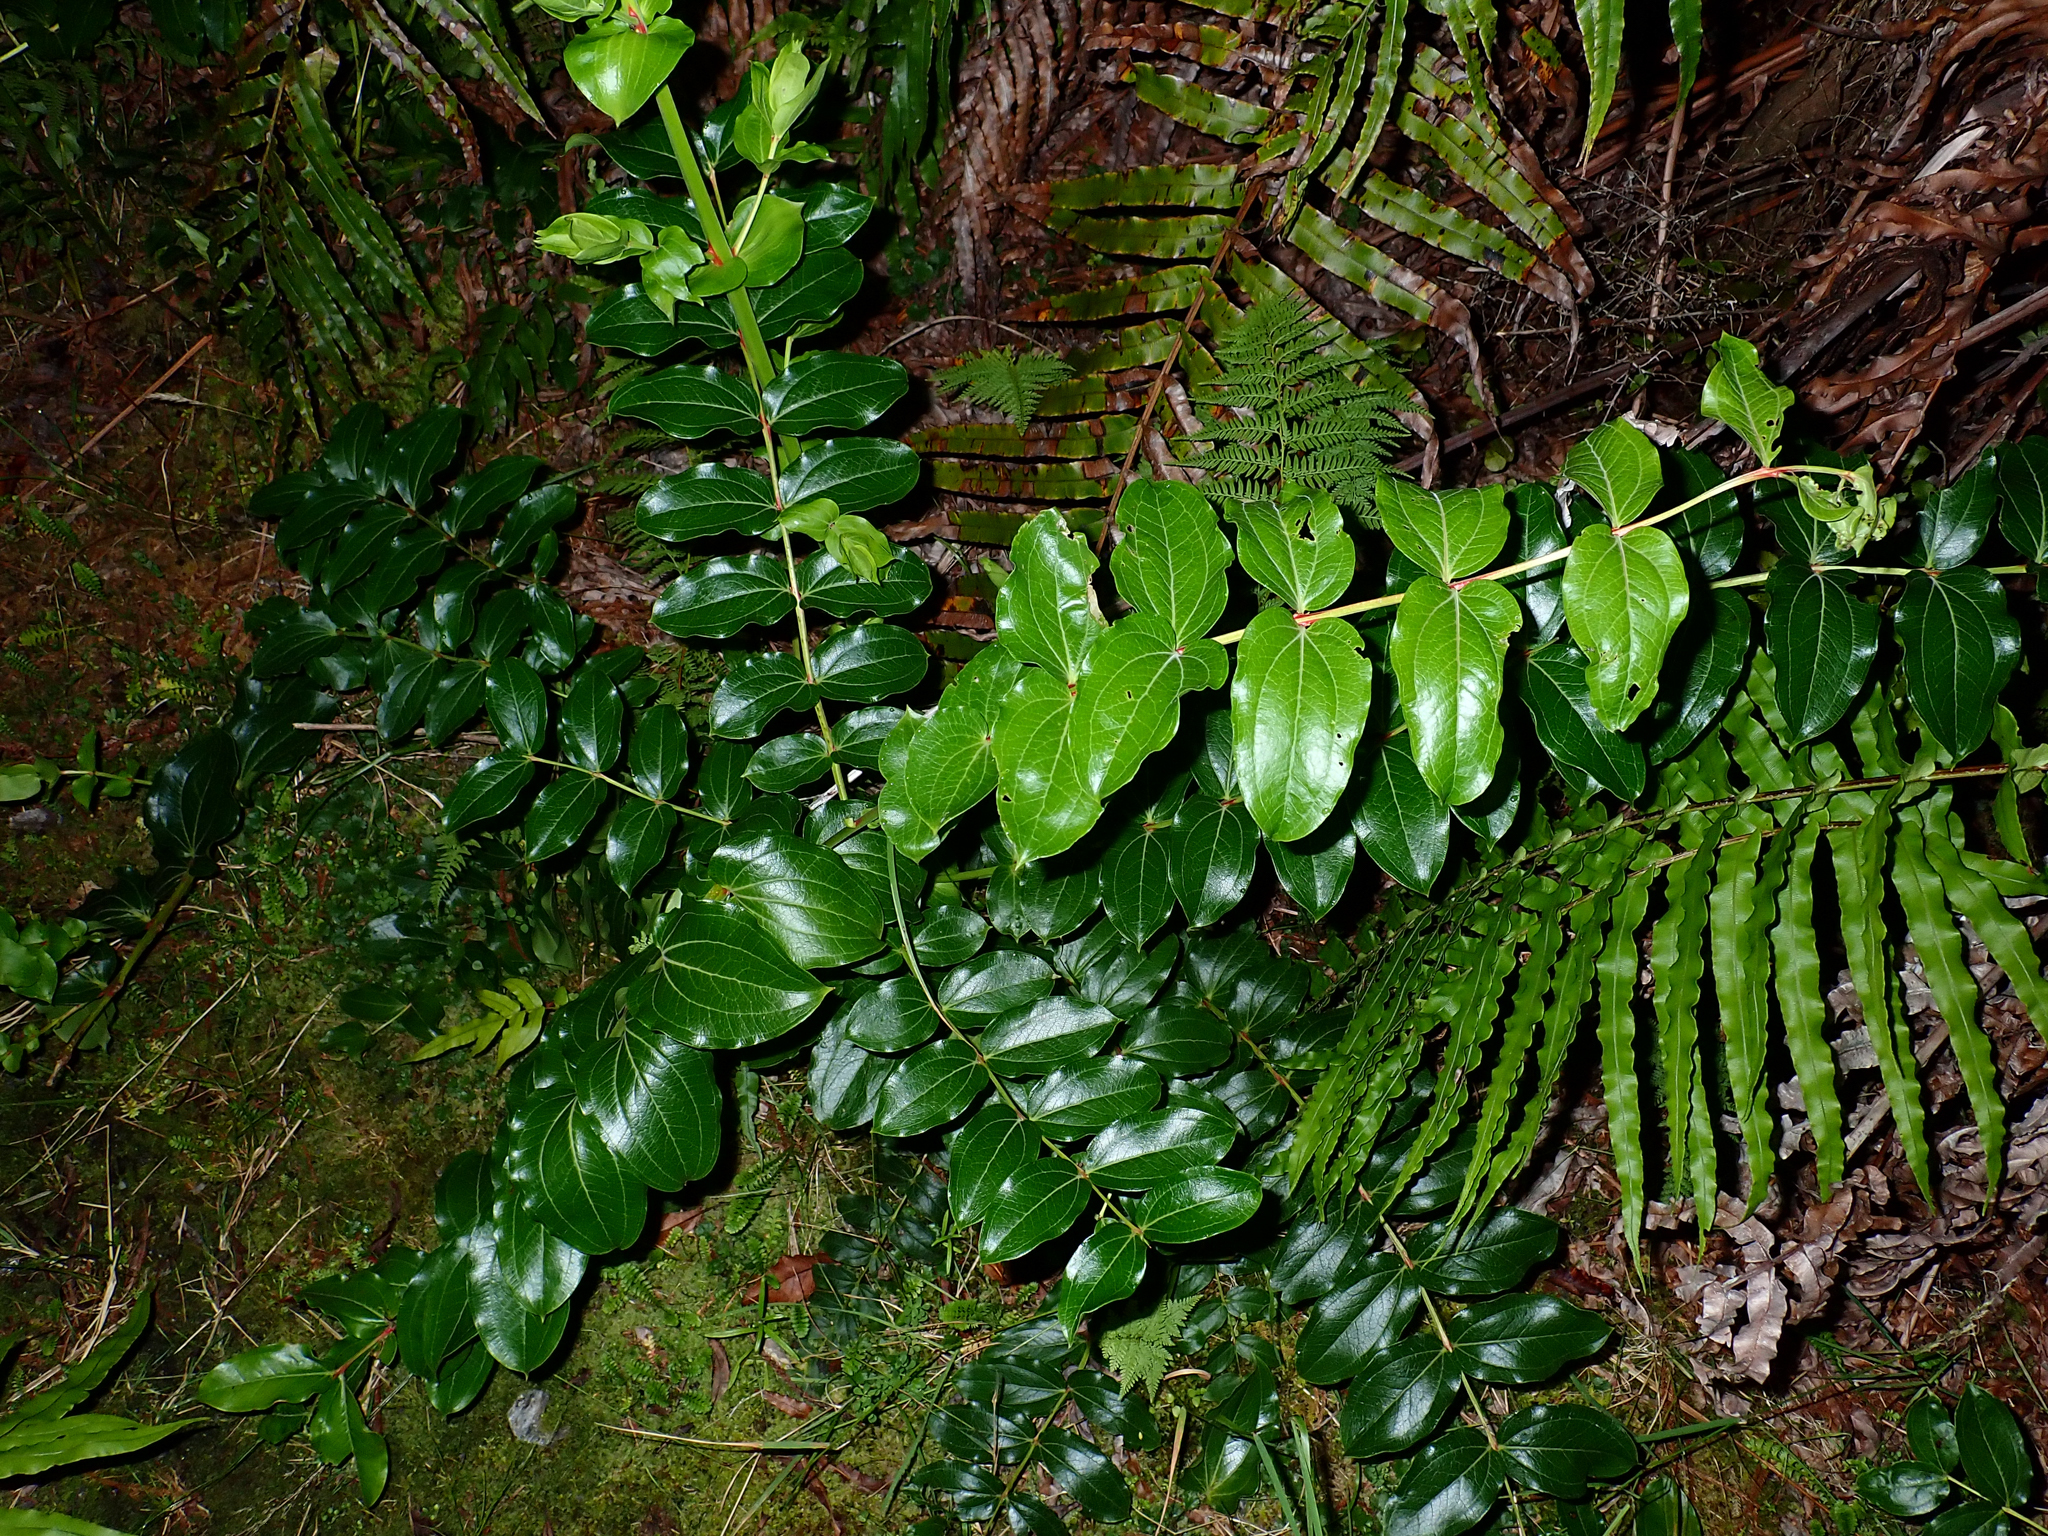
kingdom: Plantae
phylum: Tracheophyta
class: Magnoliopsida
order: Cucurbitales
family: Coriariaceae
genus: Coriaria
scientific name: Coriaria arborea
